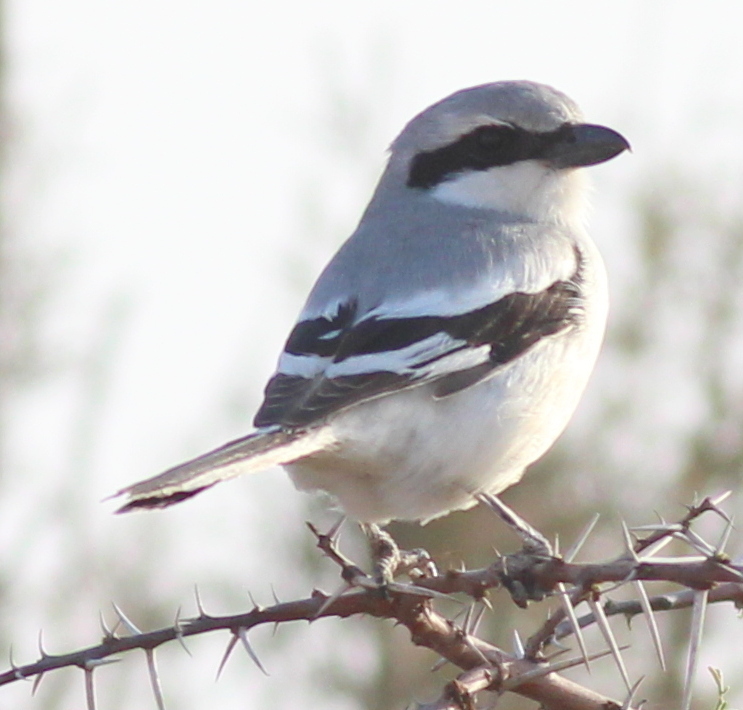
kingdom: Animalia
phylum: Chordata
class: Aves
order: Passeriformes
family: Laniidae
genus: Lanius
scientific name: Lanius excubitor
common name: Great grey shrike
